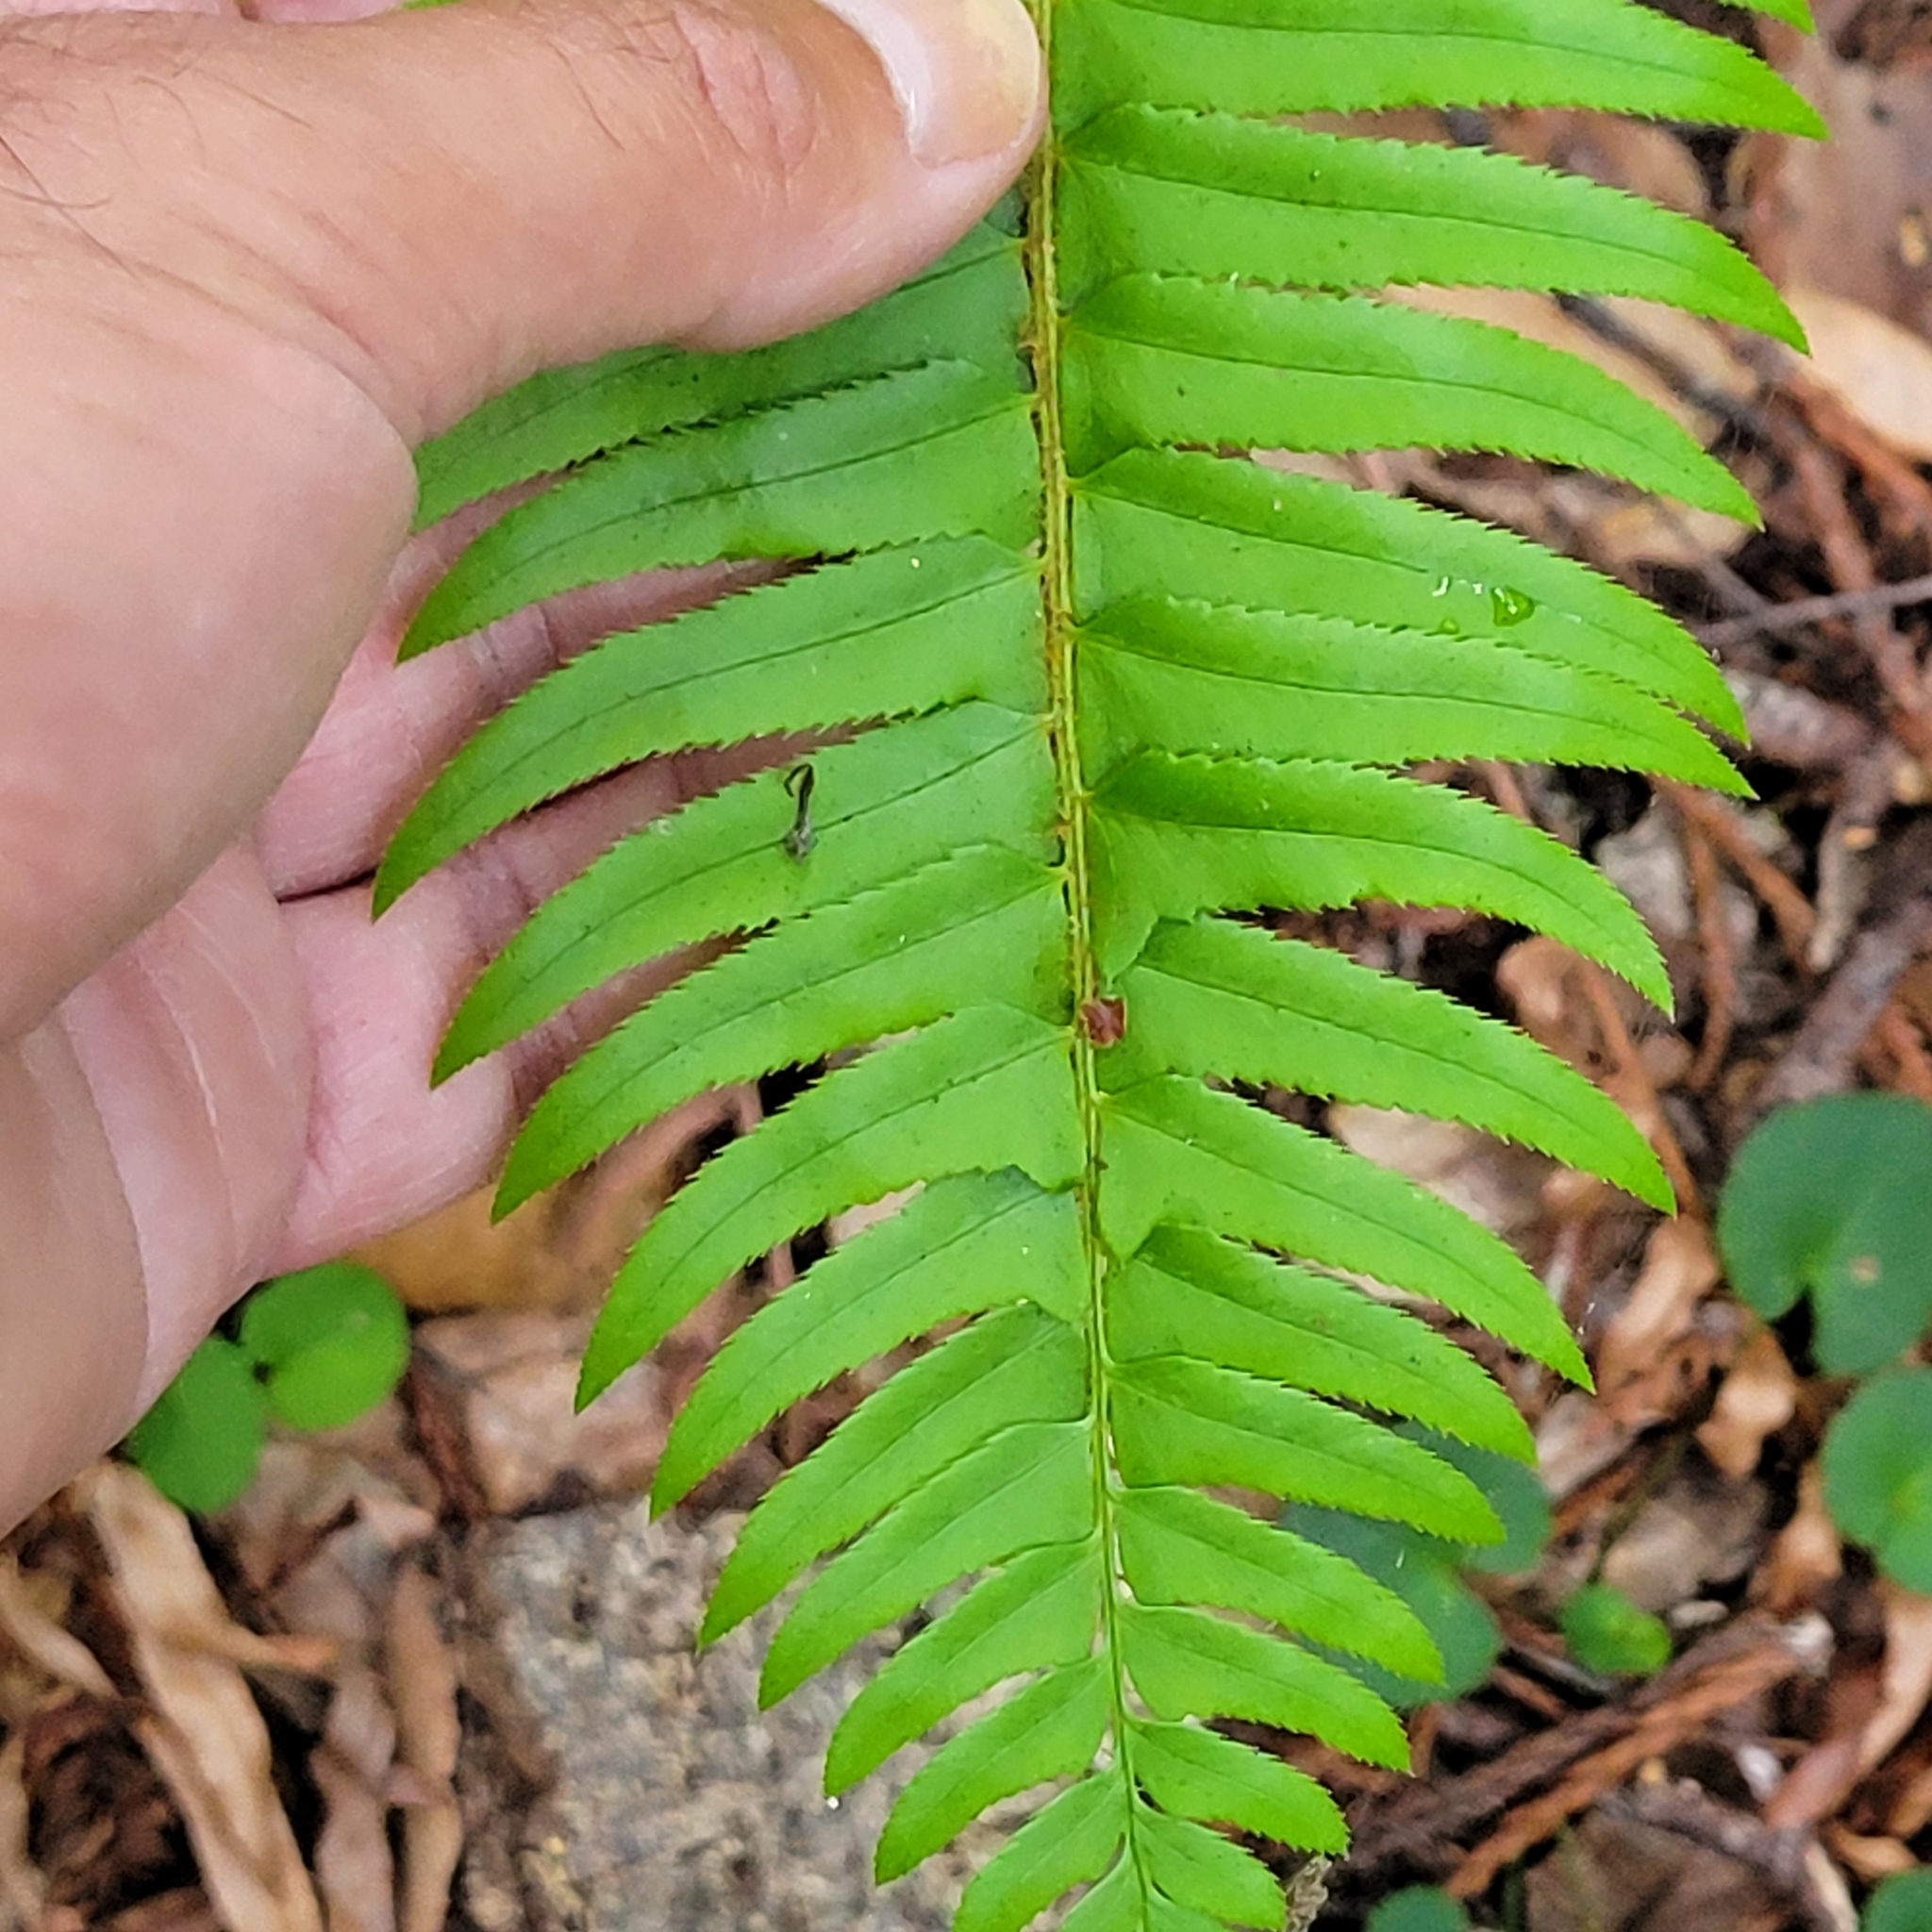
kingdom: Plantae
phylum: Tracheophyta
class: Polypodiopsida
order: Polypodiales
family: Dryopteridaceae
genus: Polystichum
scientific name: Polystichum munitum
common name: Western sword-fern
